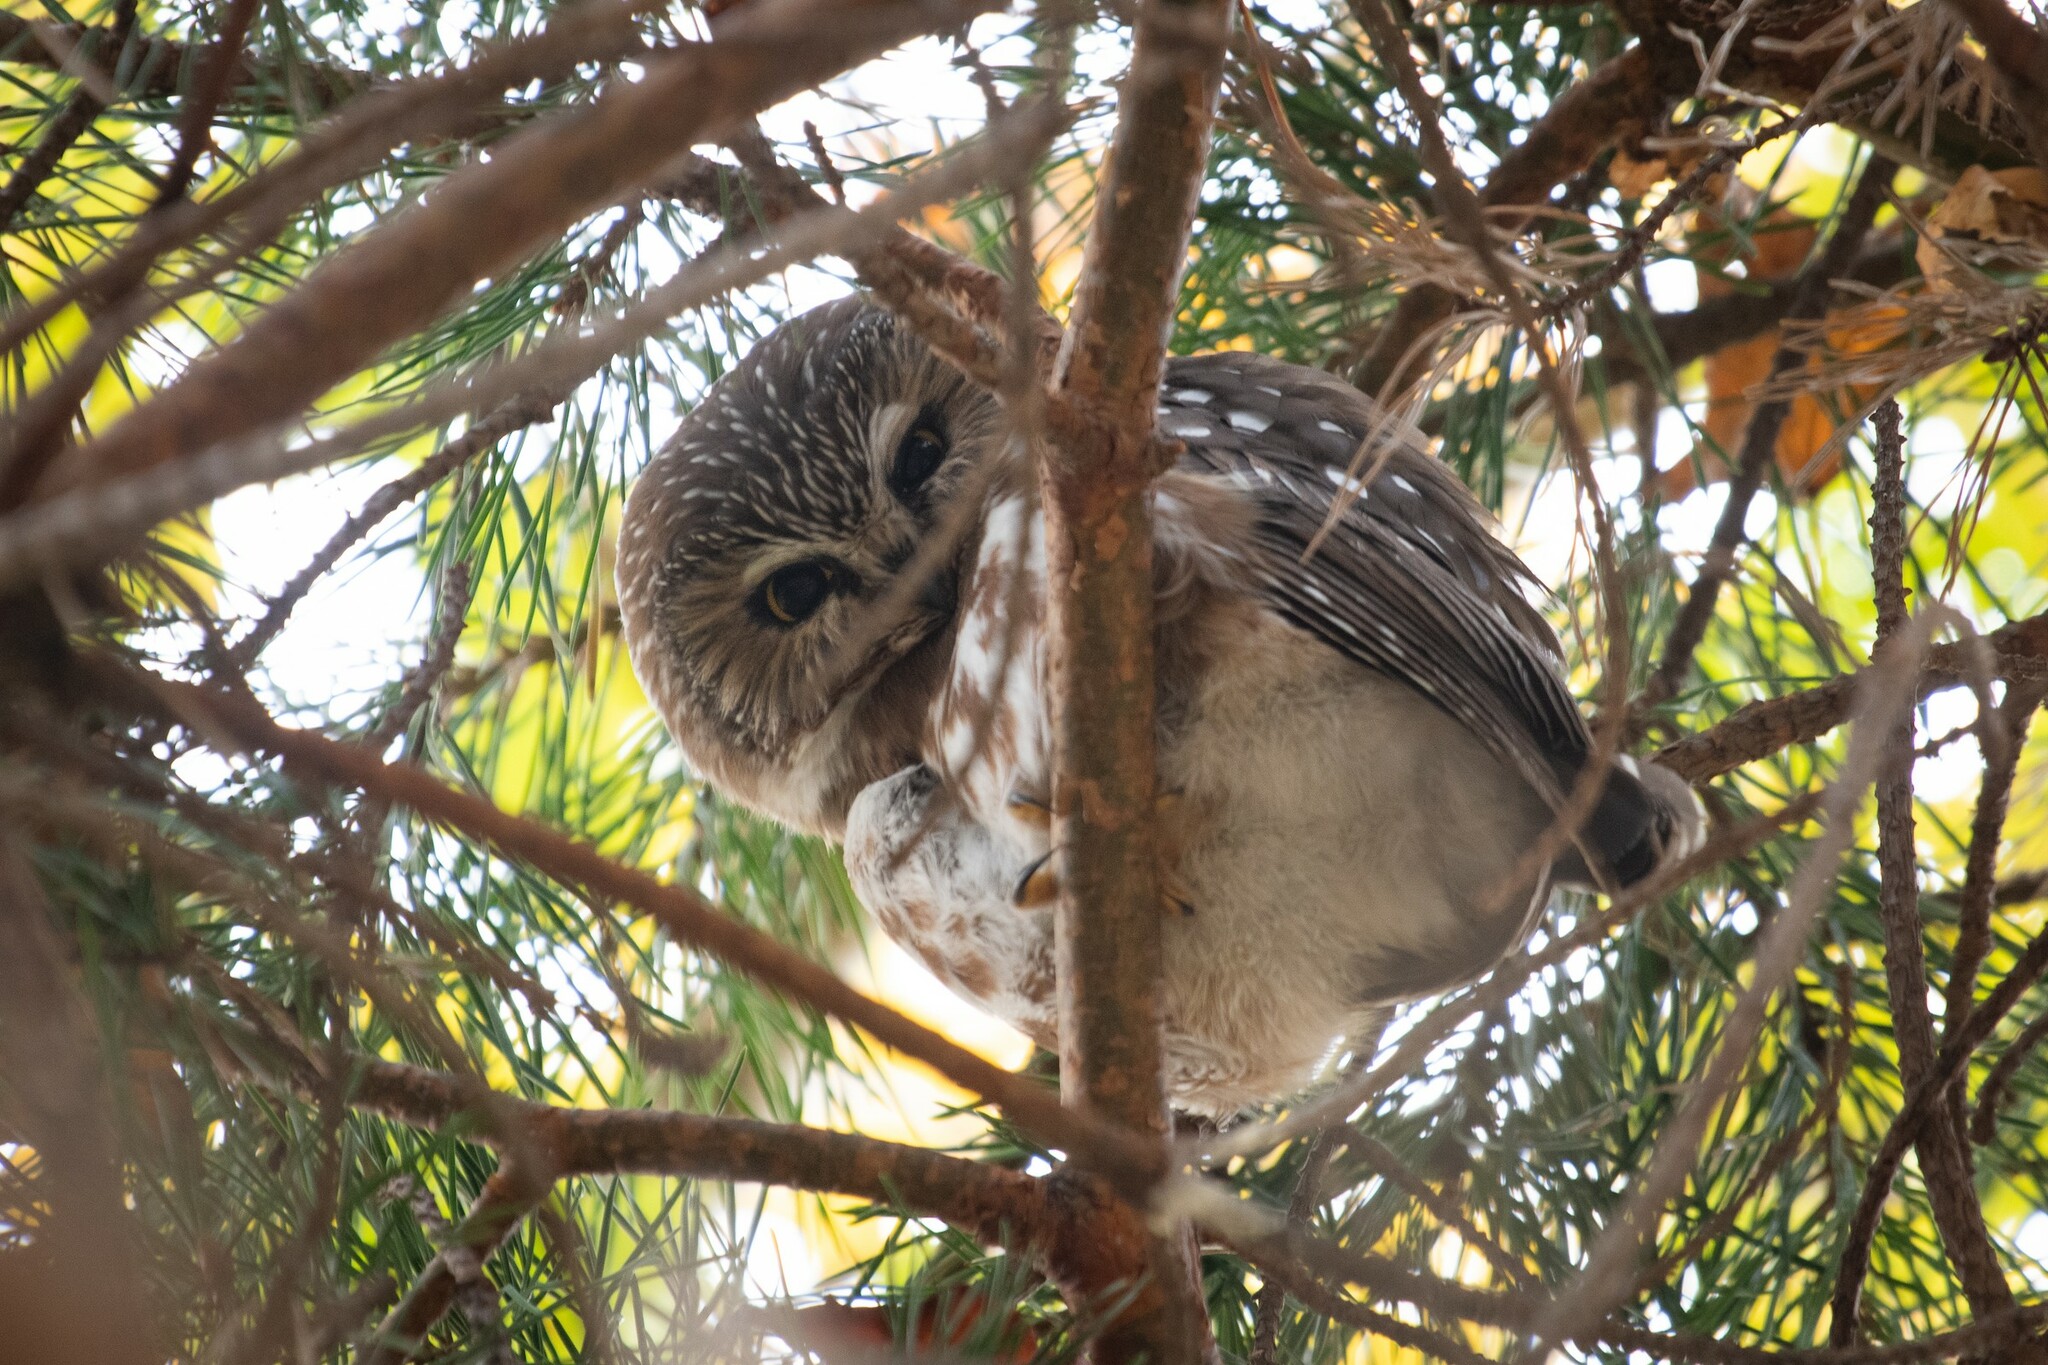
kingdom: Animalia
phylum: Chordata
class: Aves
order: Strigiformes
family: Strigidae
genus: Aegolius
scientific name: Aegolius acadicus
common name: Northern saw-whet owl
